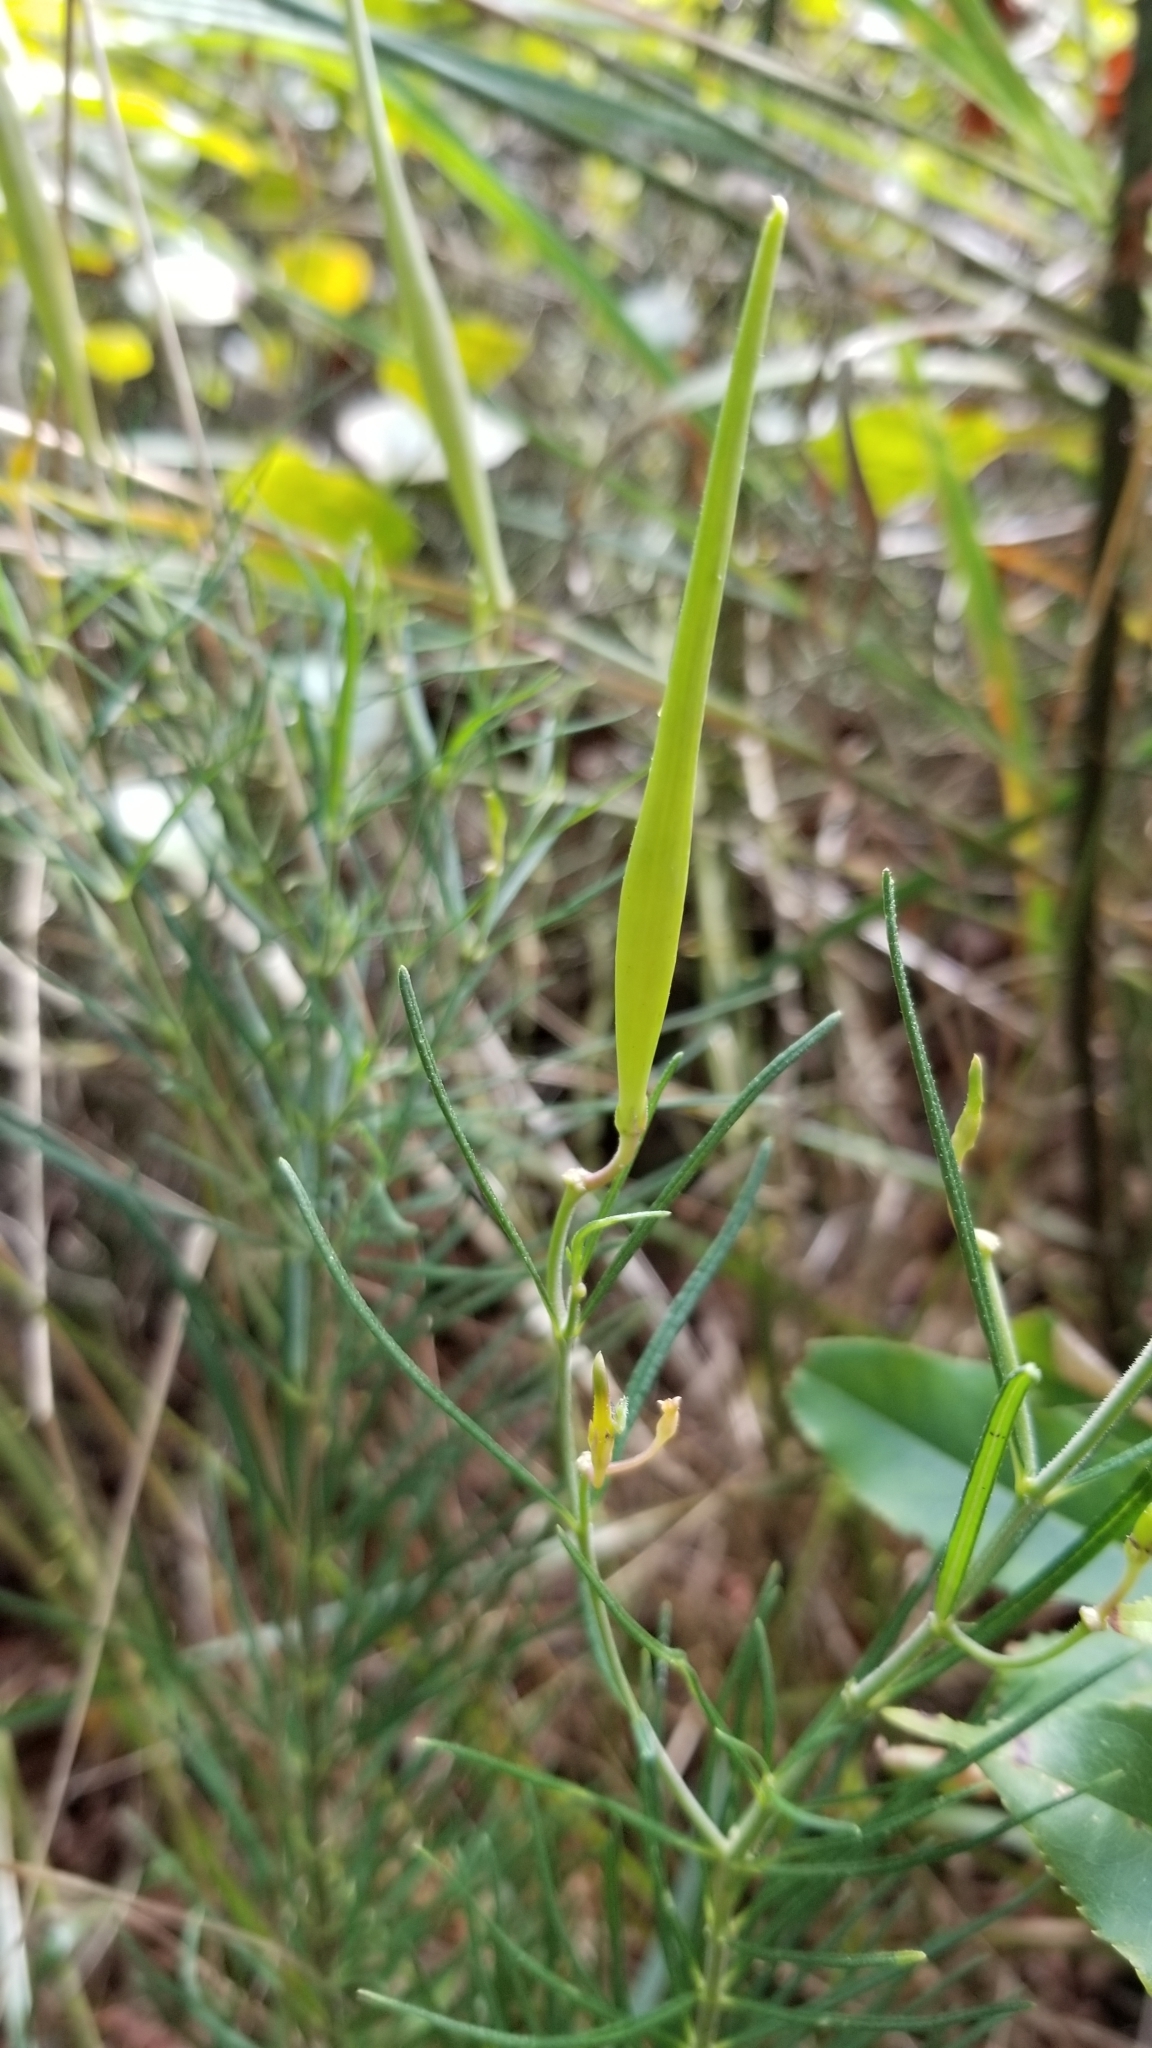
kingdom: Plantae
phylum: Tracheophyta
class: Magnoliopsida
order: Gentianales
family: Apocynaceae
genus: Asclepias
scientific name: Asclepias verticillata
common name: Eastern whorled milkweed
